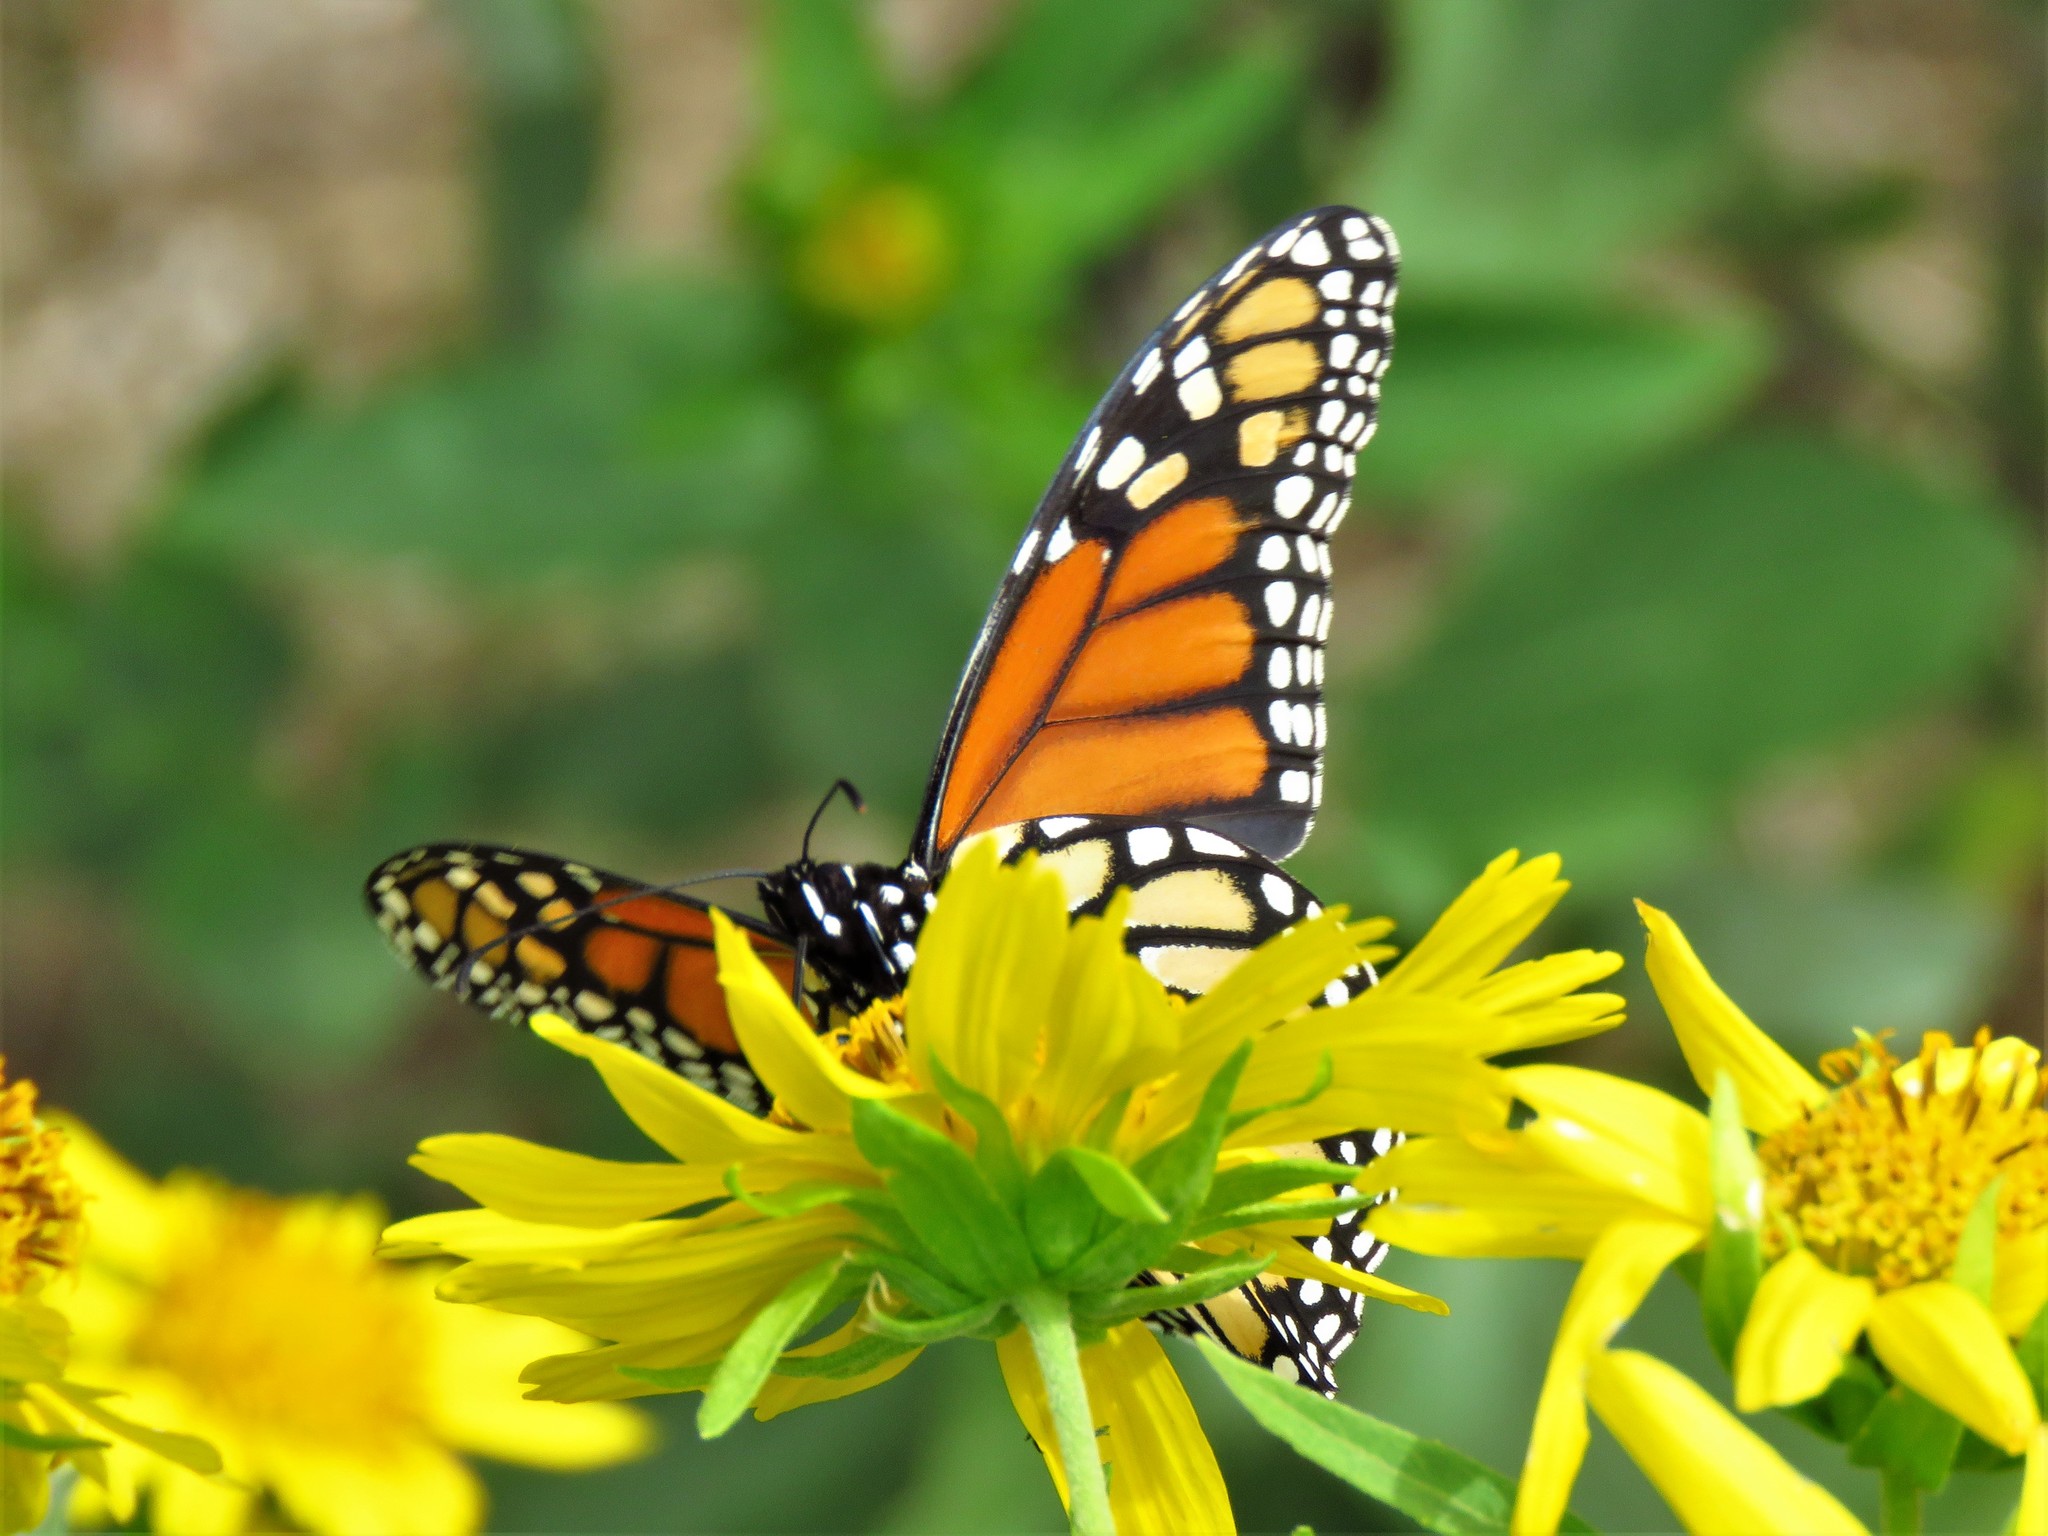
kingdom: Animalia
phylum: Arthropoda
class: Insecta
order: Lepidoptera
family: Nymphalidae
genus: Danaus
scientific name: Danaus plexippus
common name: Monarch
